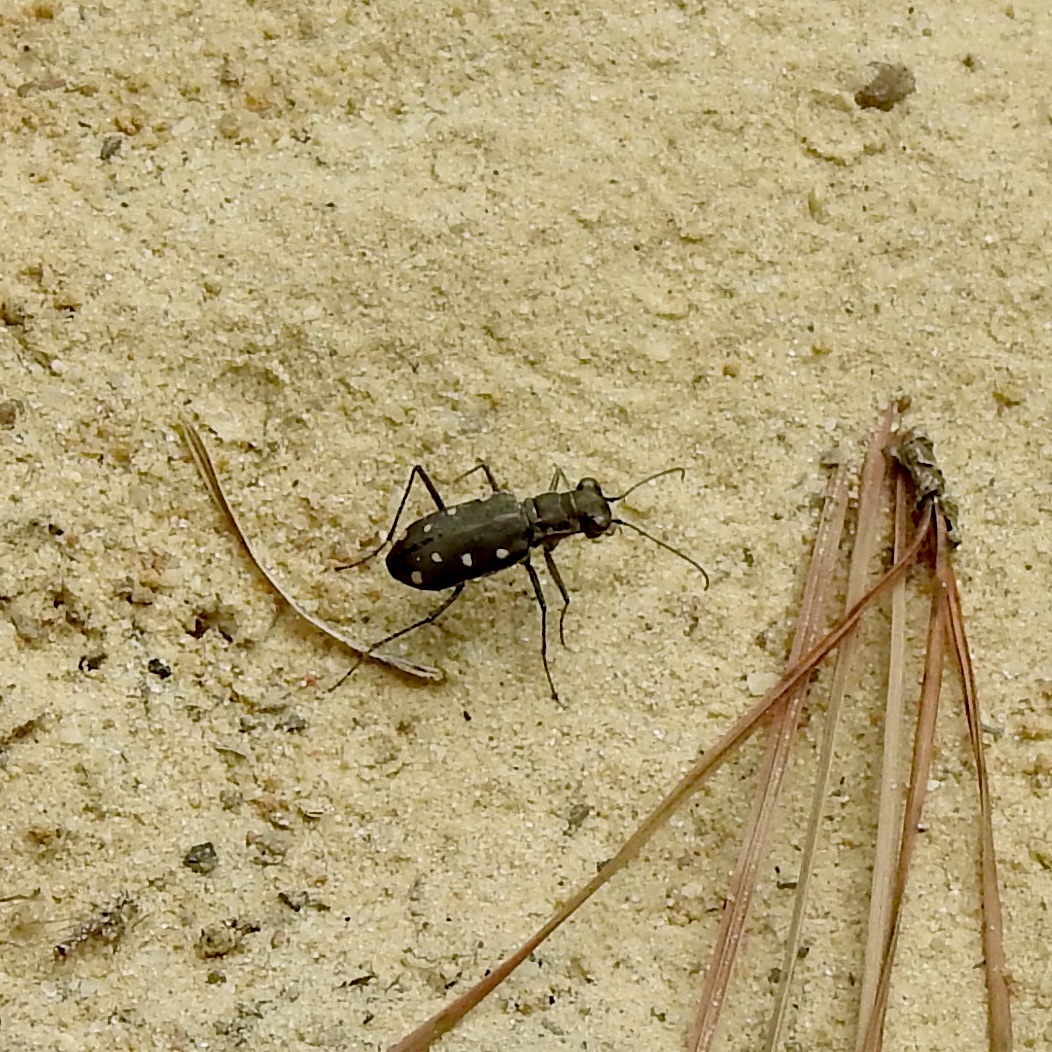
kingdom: Animalia
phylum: Arthropoda
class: Insecta
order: Coleoptera
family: Carabidae
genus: Cicindela
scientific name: Cicindela ocellata
